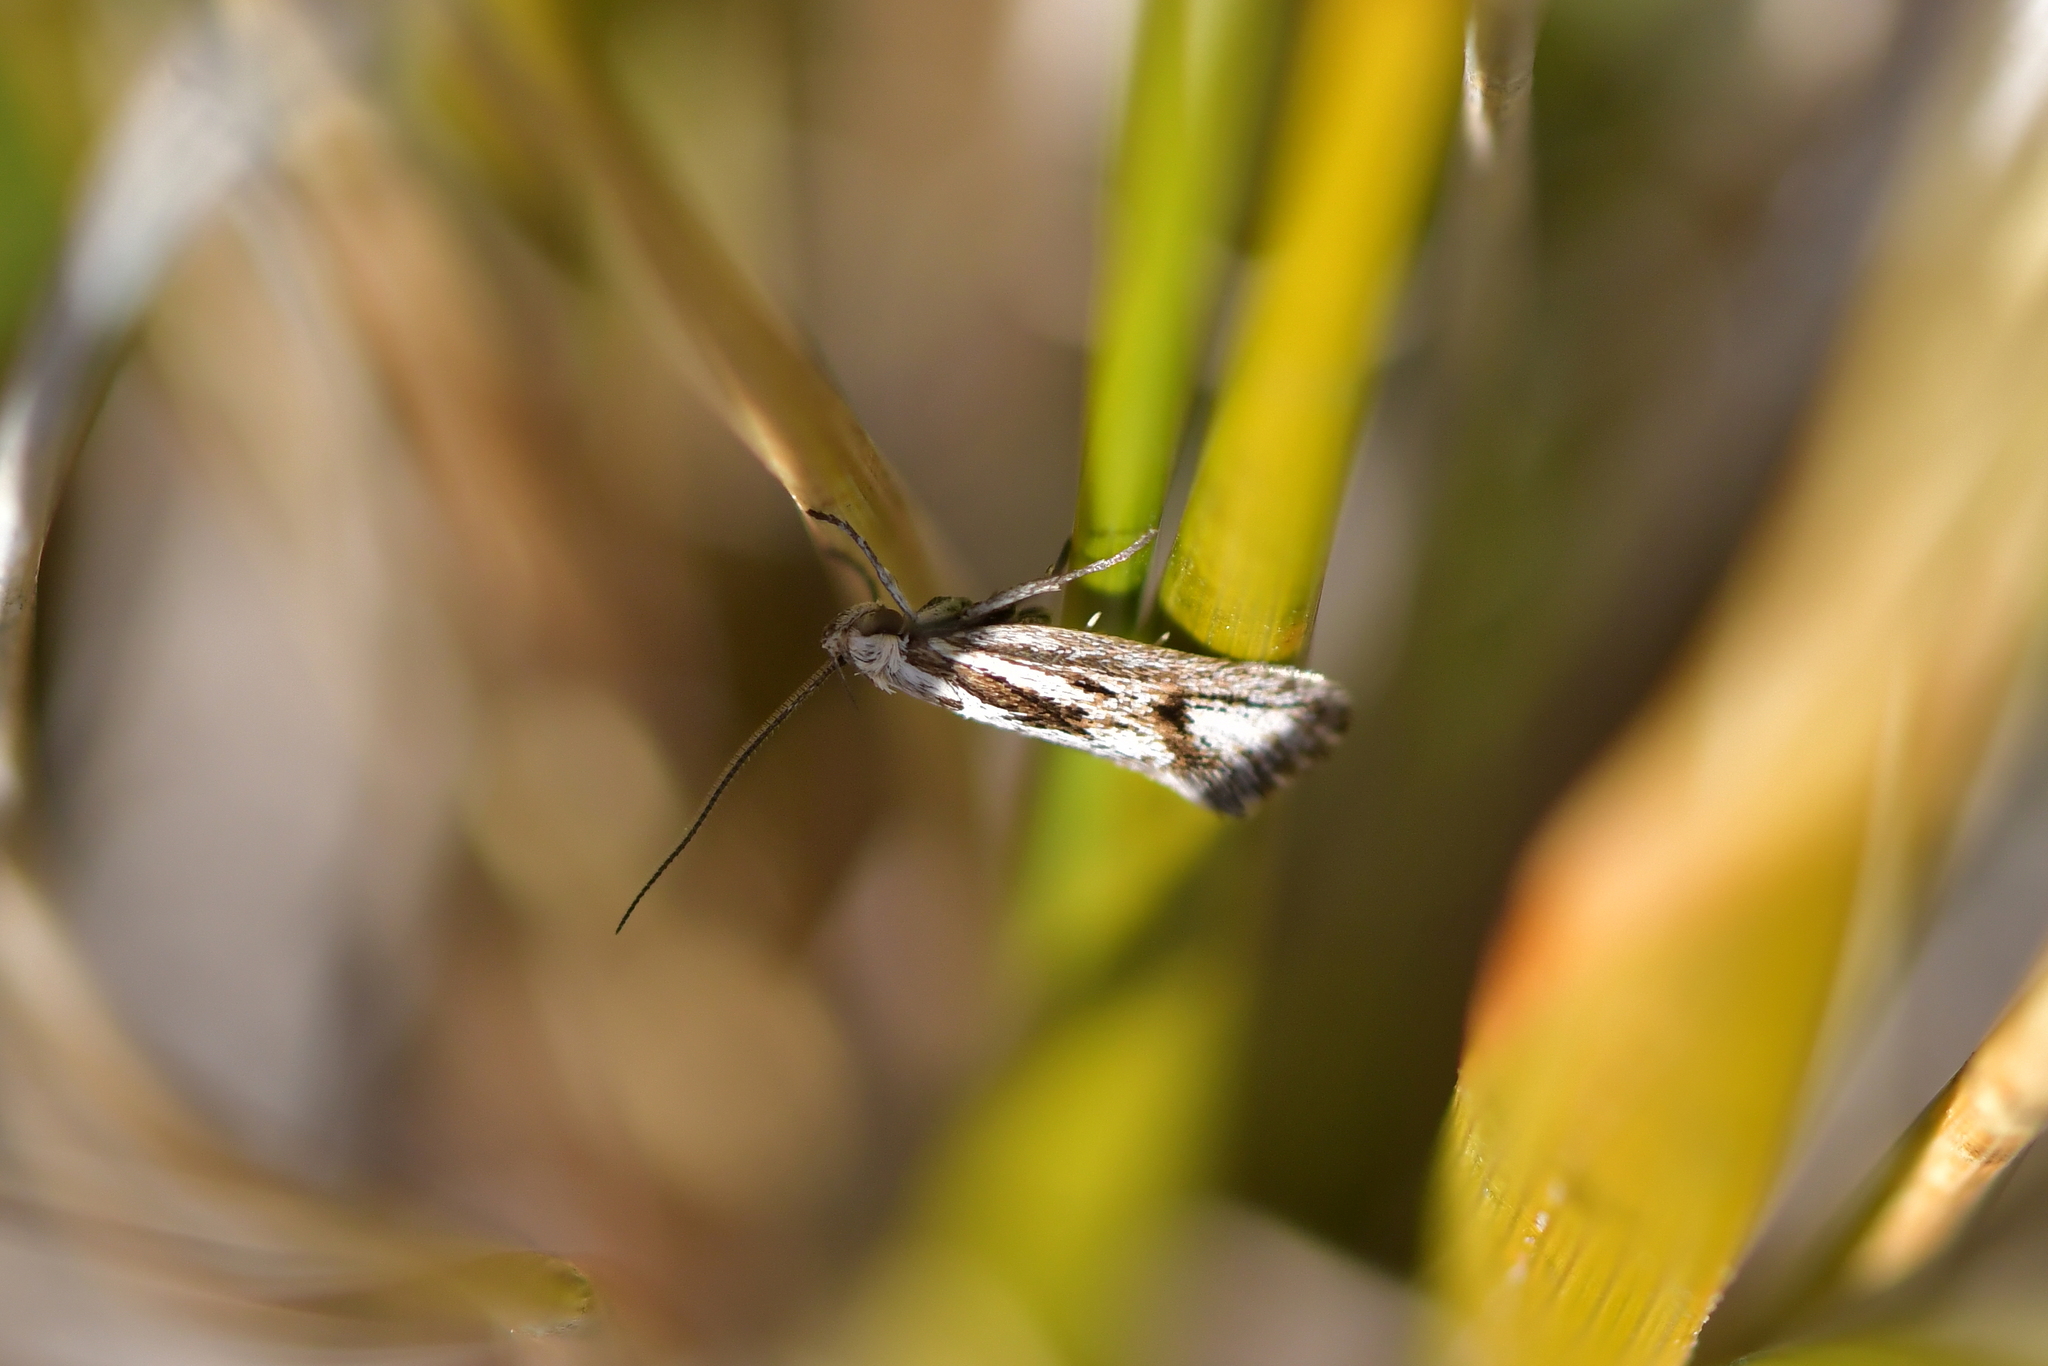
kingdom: Animalia
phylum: Arthropoda
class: Insecta
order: Lepidoptera
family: Oecophoridae
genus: Prepalla
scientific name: Prepalla
